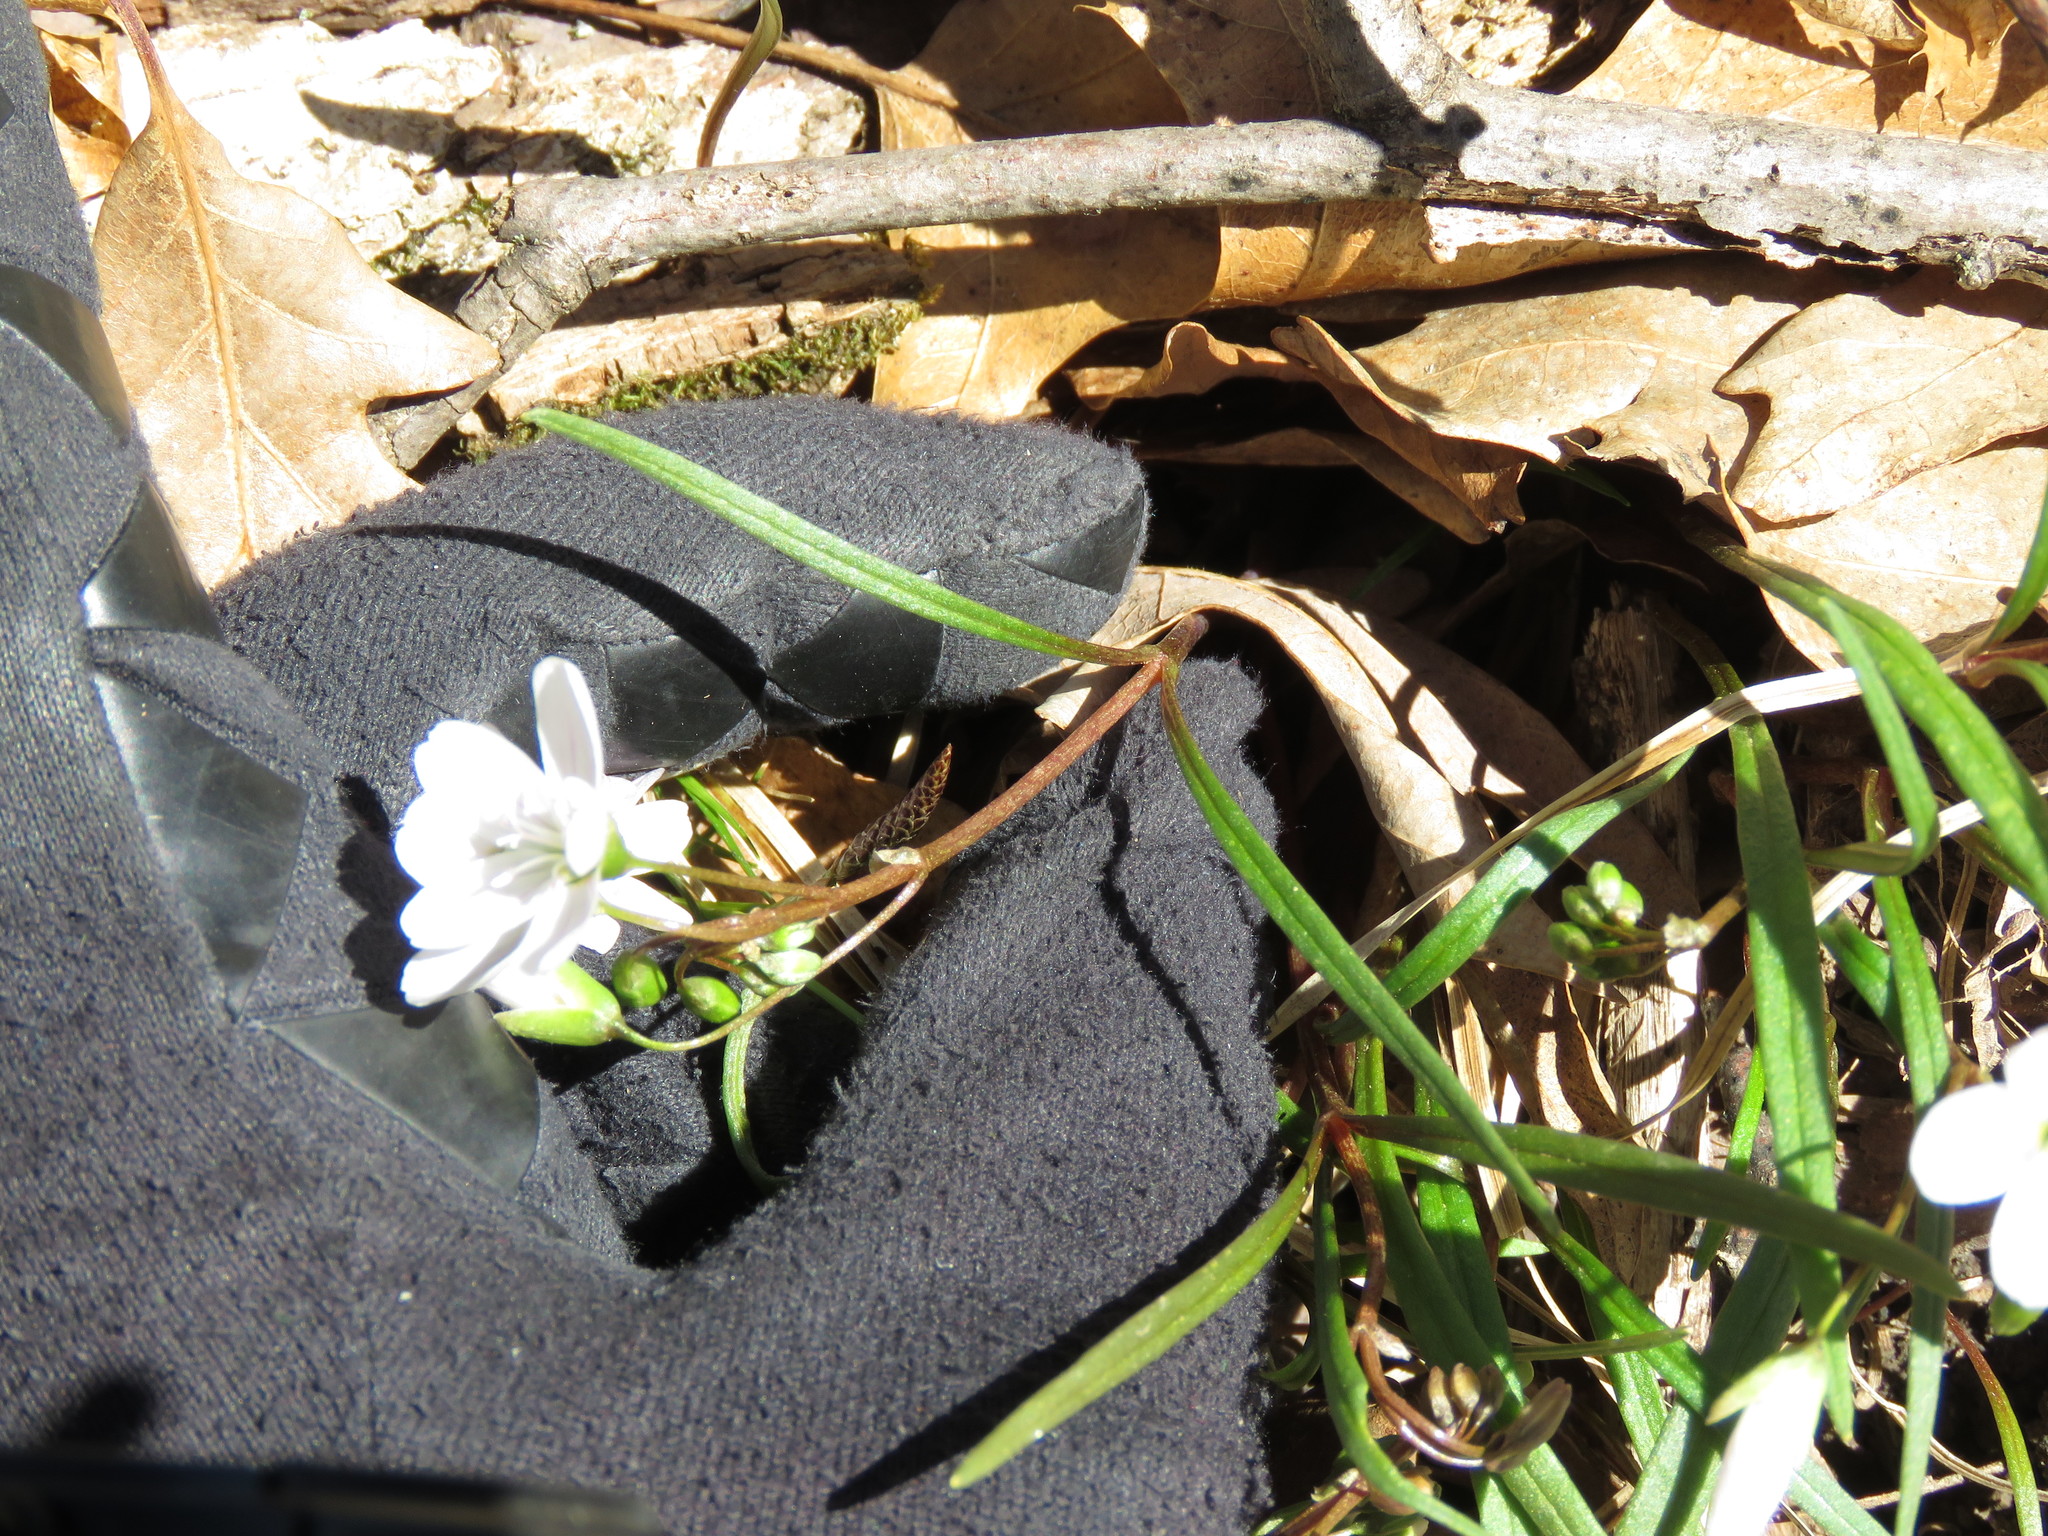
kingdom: Plantae
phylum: Tracheophyta
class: Magnoliopsida
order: Caryophyllales
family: Montiaceae
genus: Claytonia
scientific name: Claytonia virginica
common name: Virginia springbeauty
